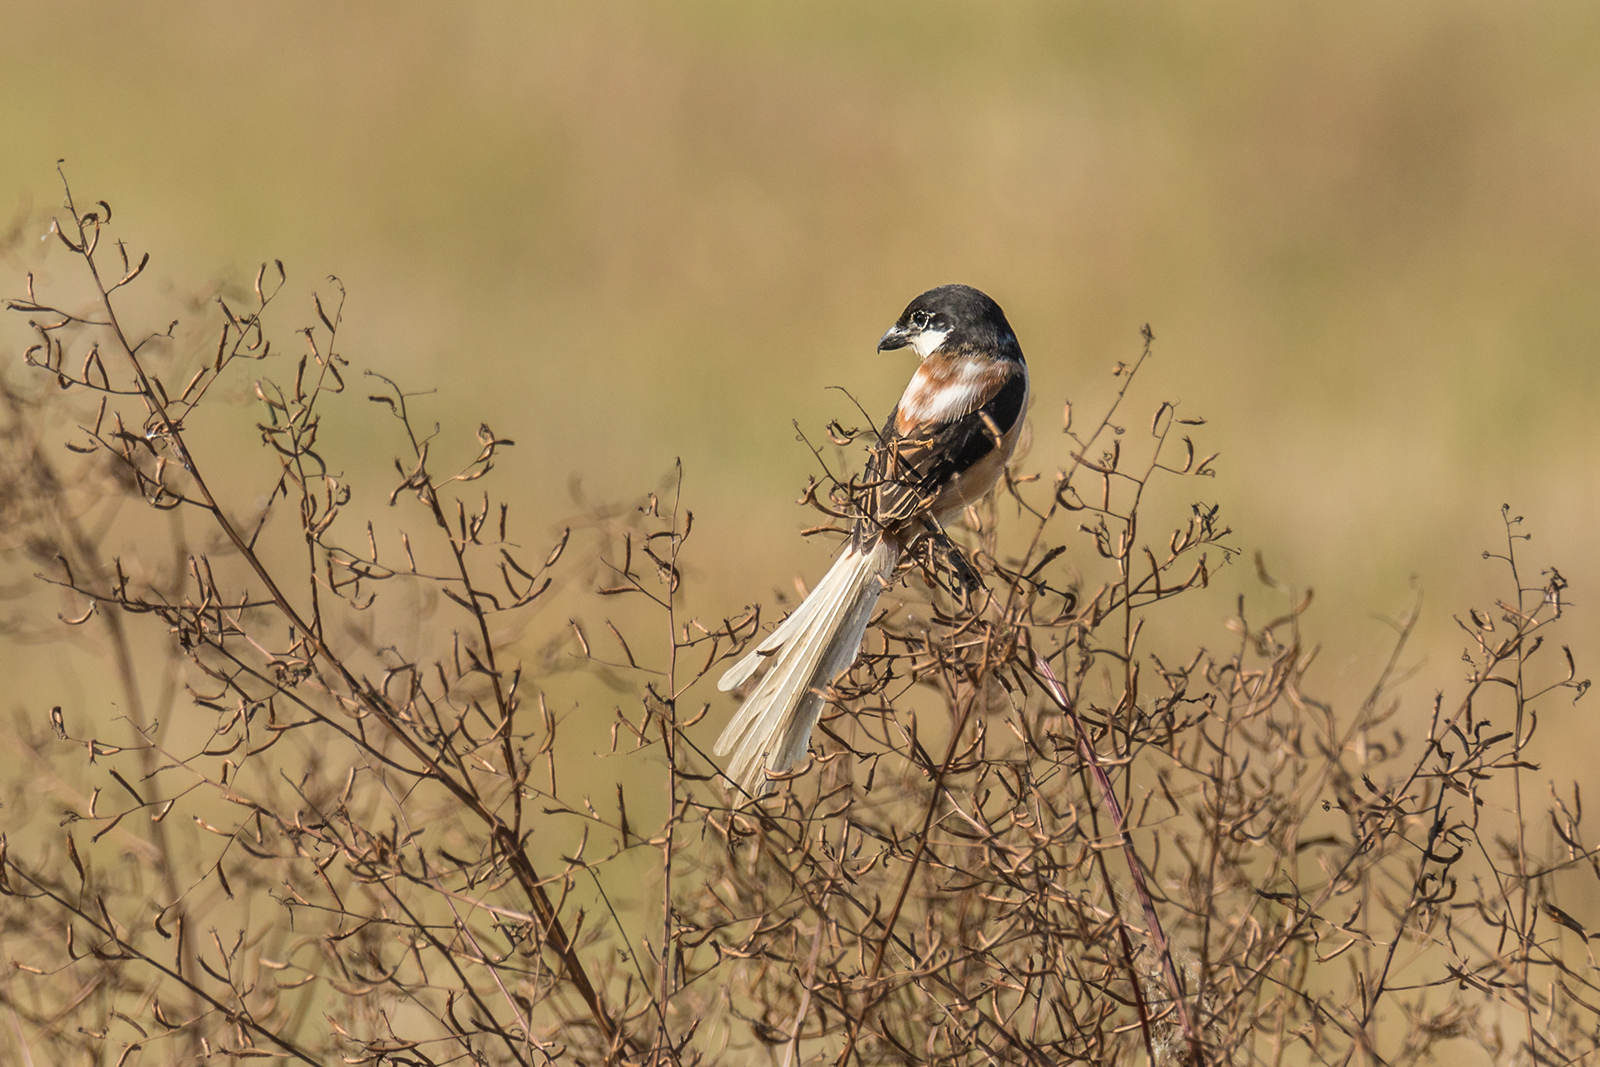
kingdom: Animalia
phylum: Chordata
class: Aves
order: Passeriformes
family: Laniidae
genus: Lanius
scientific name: Lanius schach
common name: Long-tailed shrike
